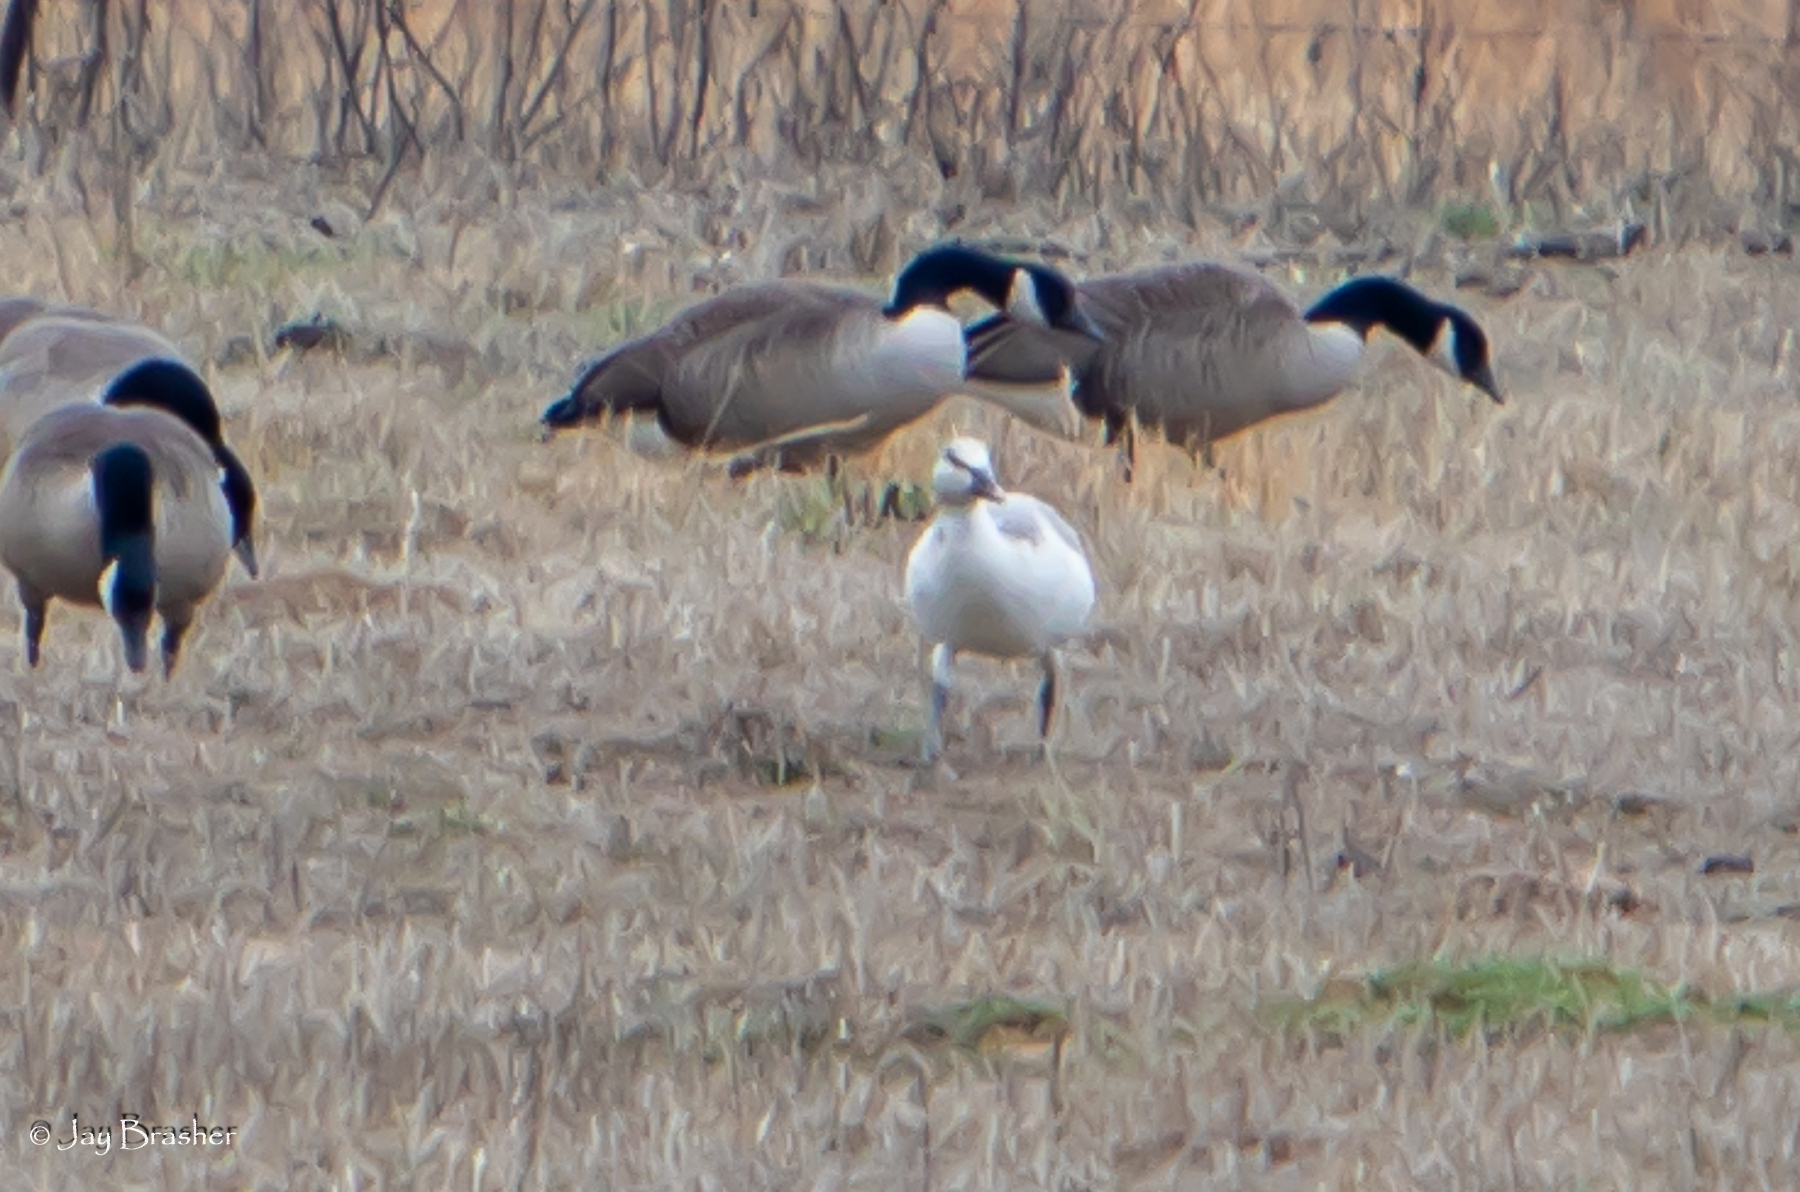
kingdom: Animalia
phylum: Chordata
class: Aves
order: Anseriformes
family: Anatidae
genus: Anser
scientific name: Anser caerulescens
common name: Snow goose
